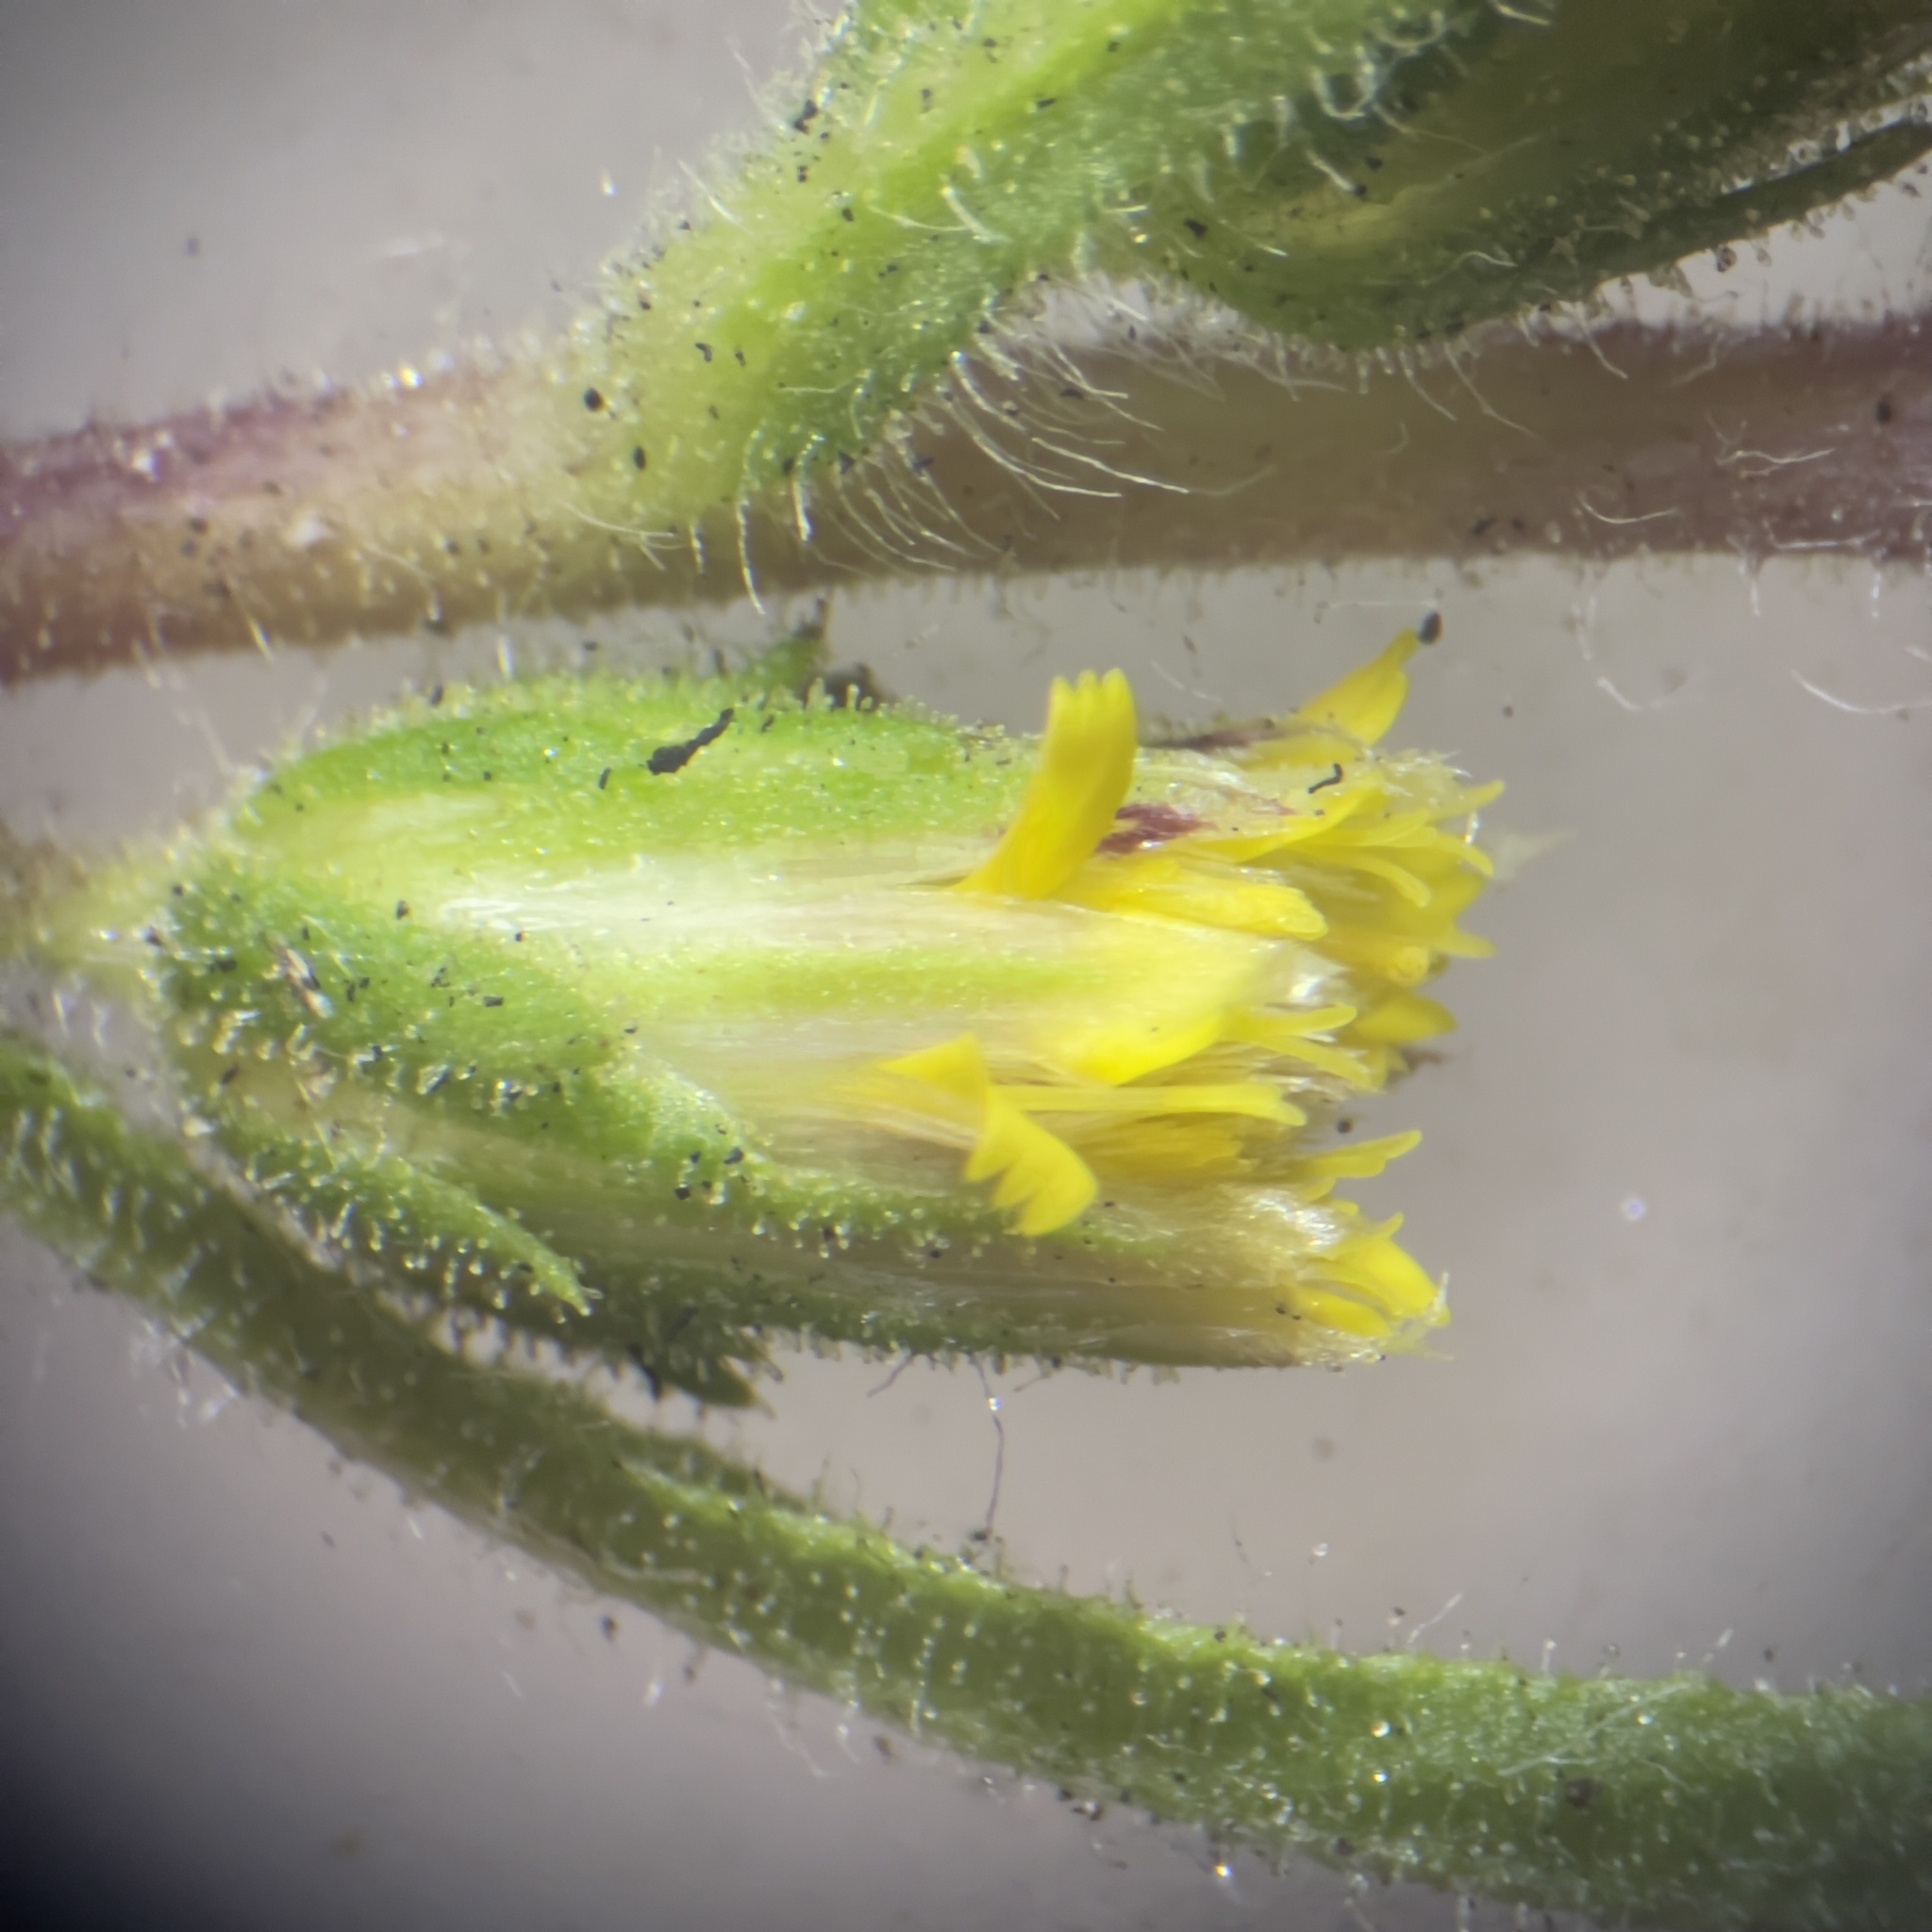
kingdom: Plantae
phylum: Tracheophyta
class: Magnoliopsida
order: Asterales
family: Asteraceae
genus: Dittrichia
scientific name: Dittrichia graveolens
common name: Stinking fleabane
